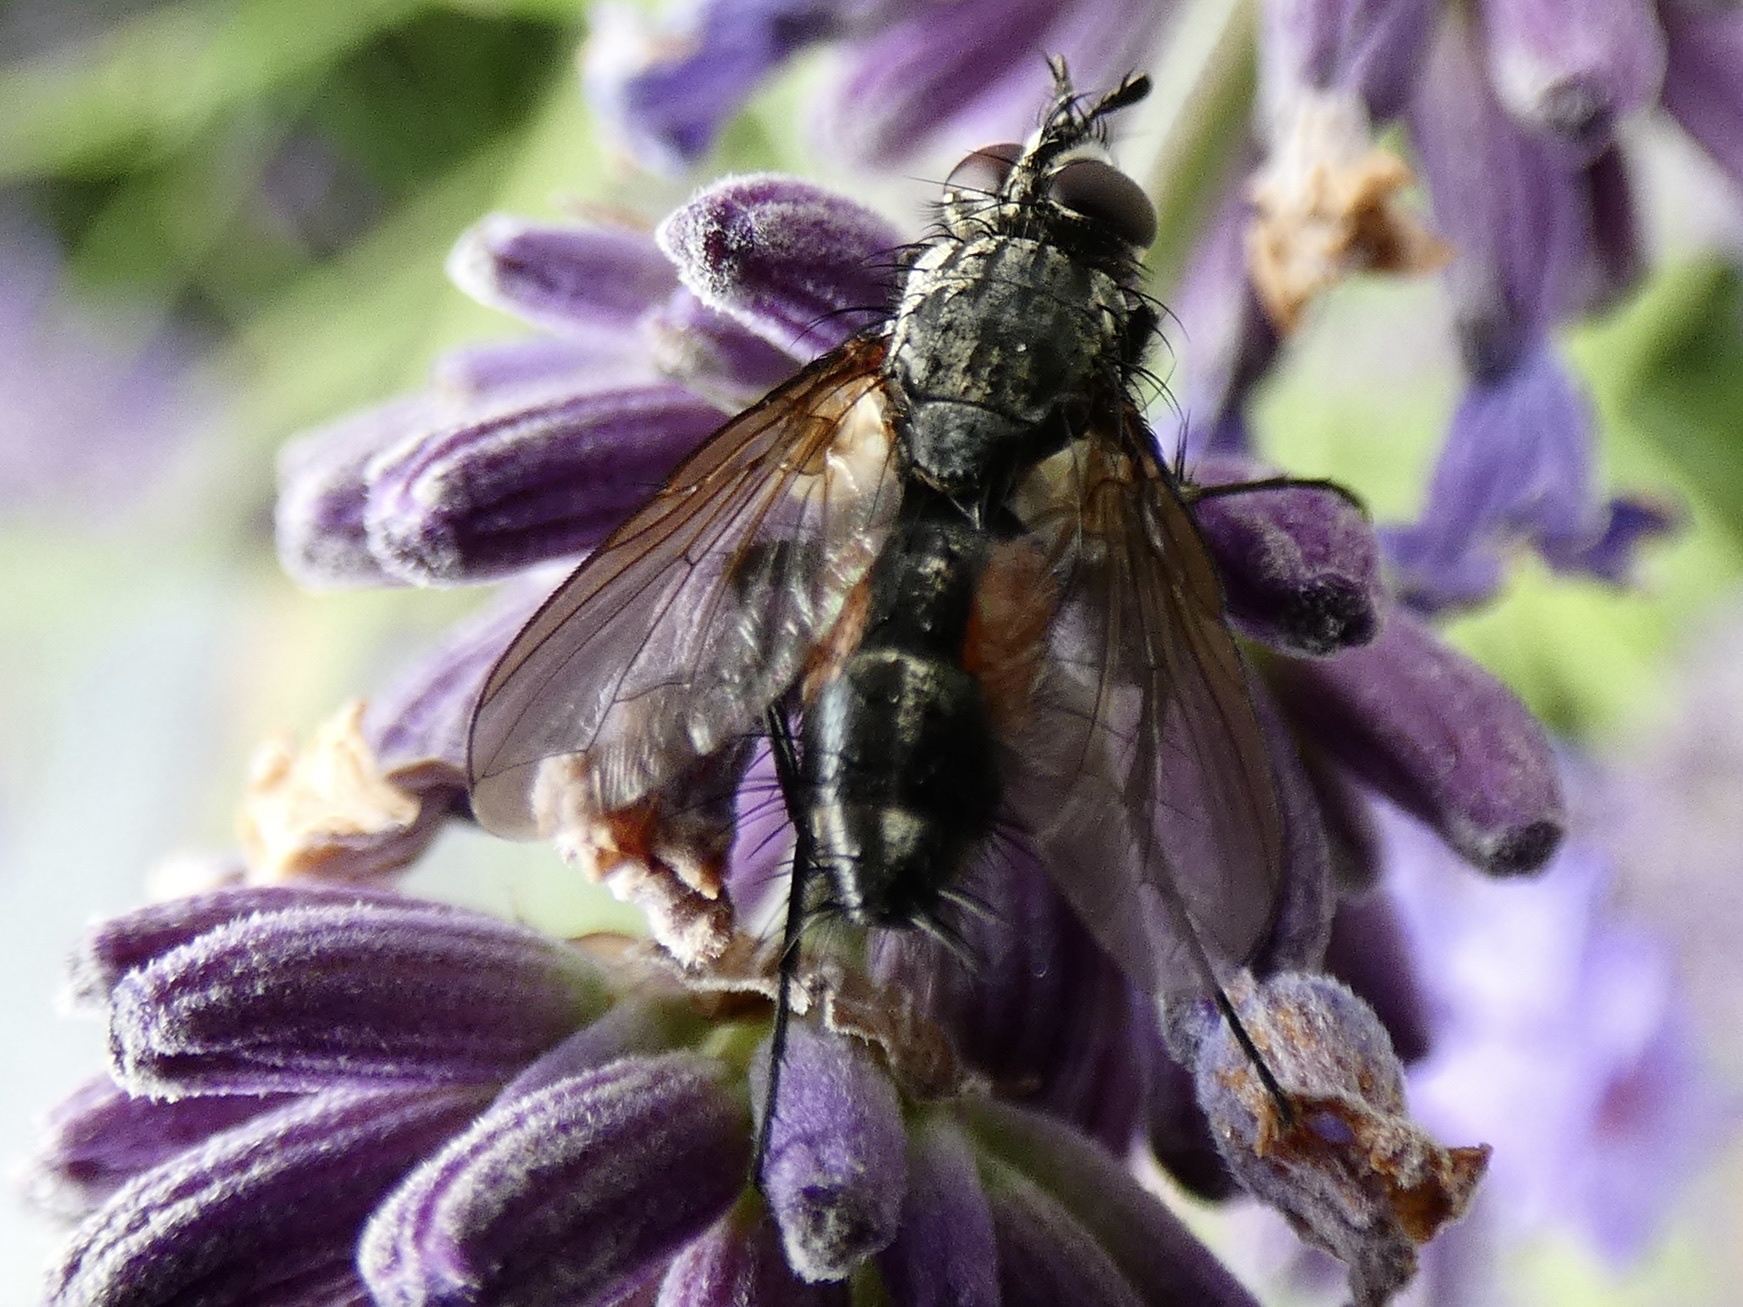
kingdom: Animalia
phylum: Arthropoda
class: Insecta
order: Diptera
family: Tachinidae
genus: Eriothrix
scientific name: Eriothrix rufomaculatus
